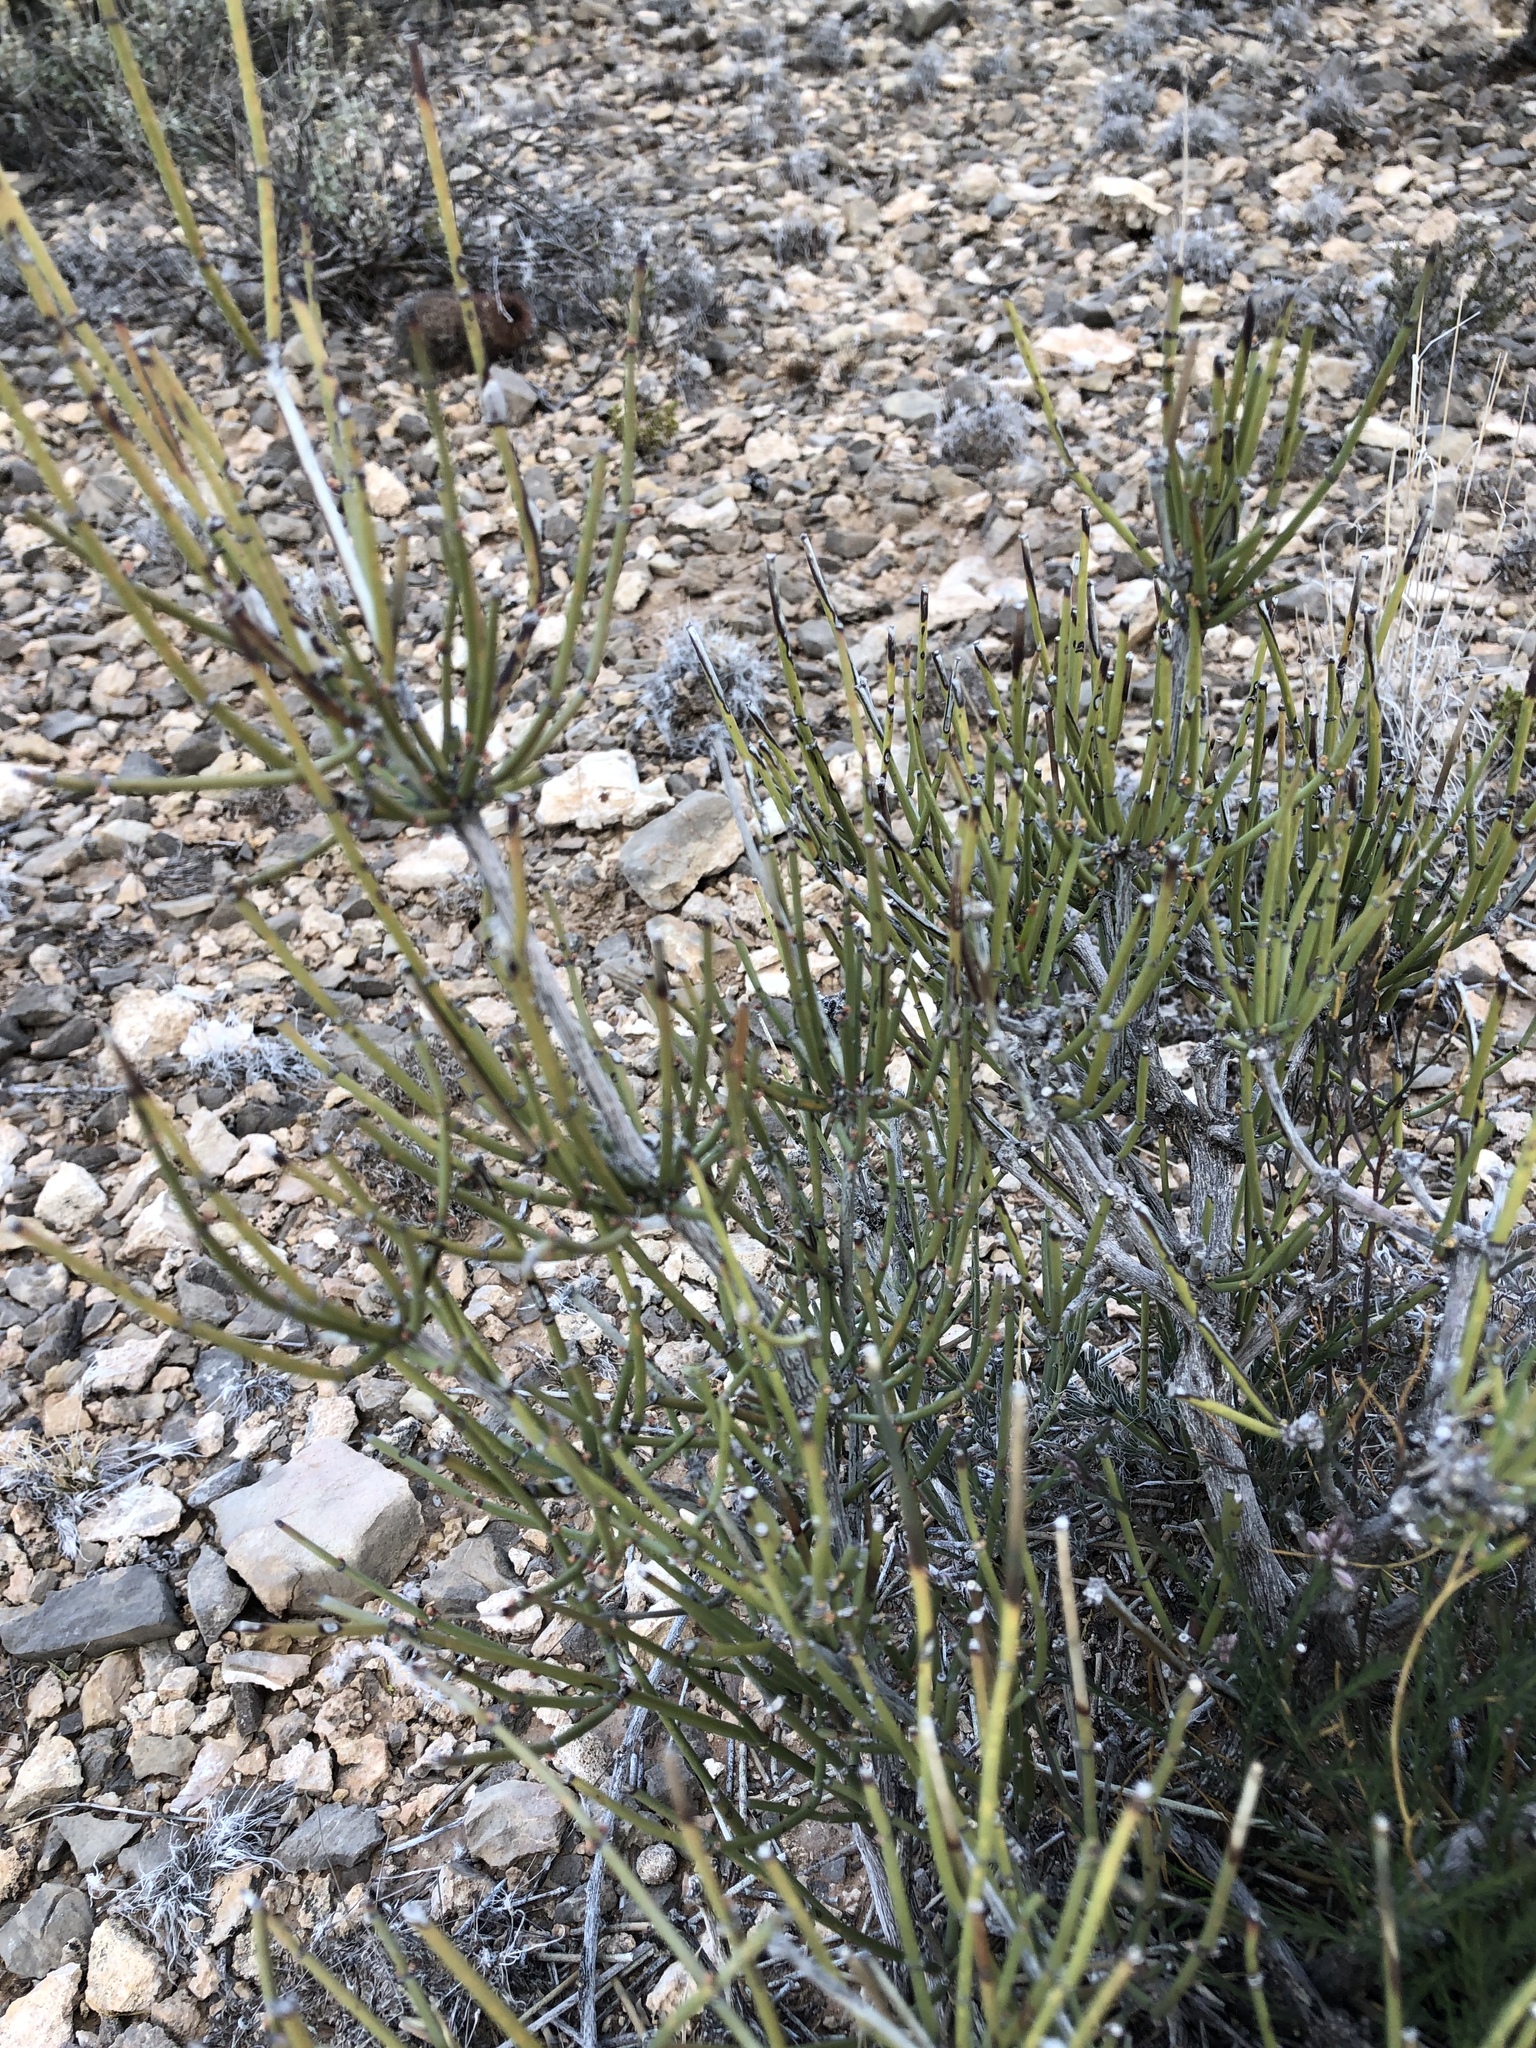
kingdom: Plantae
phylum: Tracheophyta
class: Gnetopsida
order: Ephedrales
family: Ephedraceae
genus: Ephedra
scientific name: Ephedra aspera
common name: Boundary ephedra
